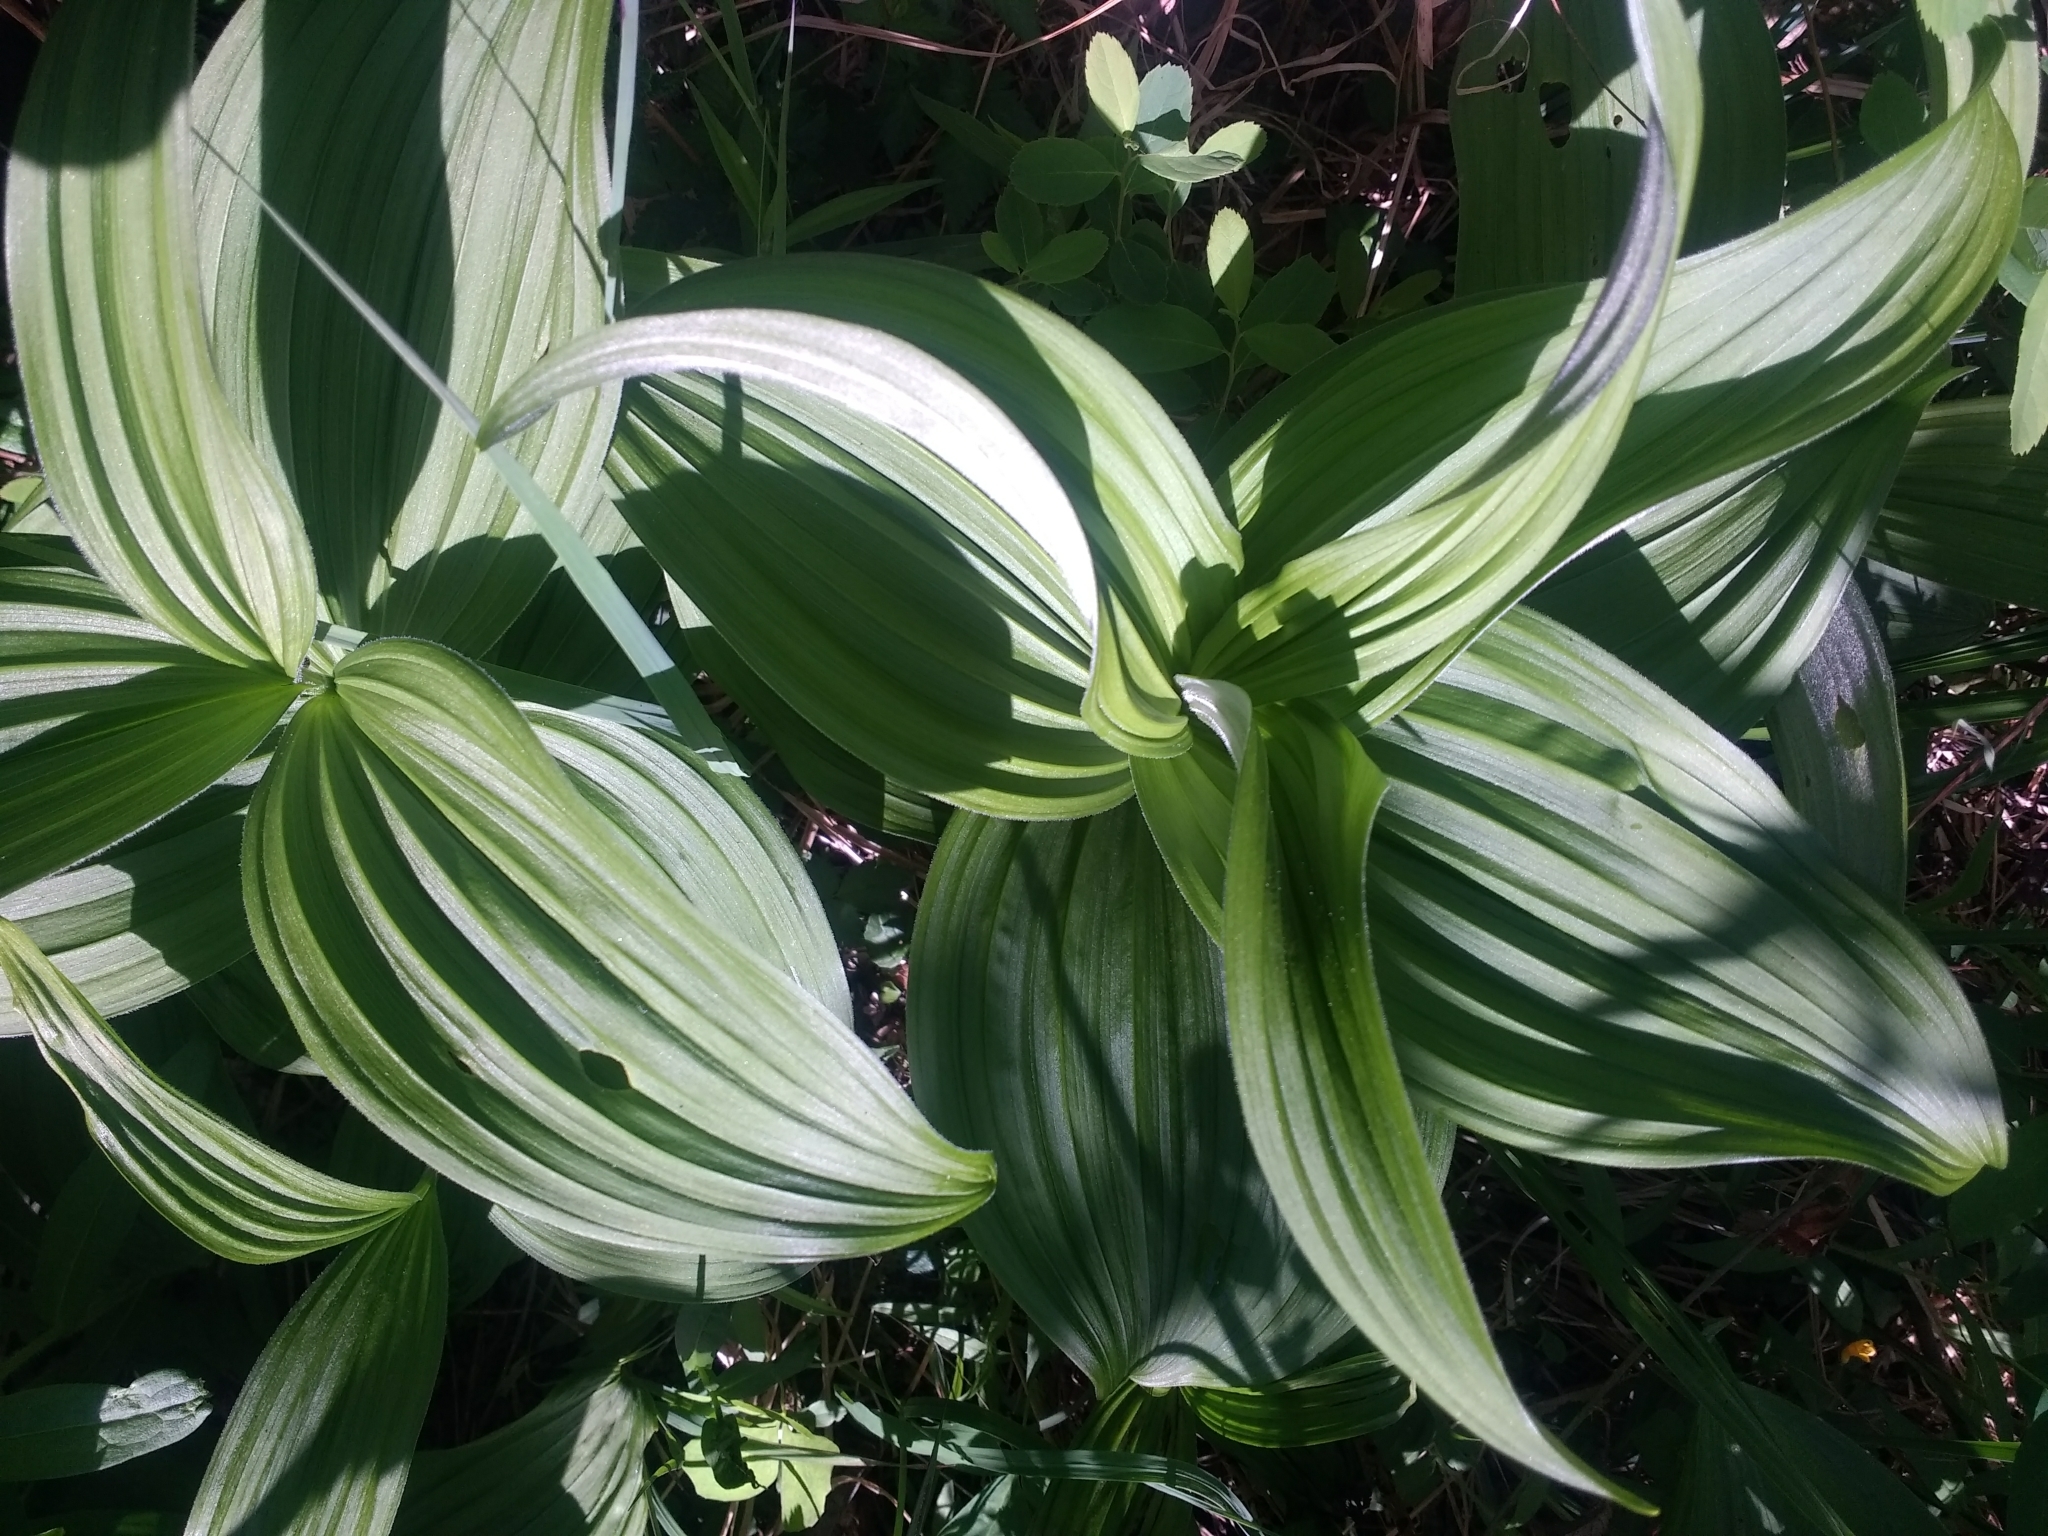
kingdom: Plantae
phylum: Tracheophyta
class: Liliopsida
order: Liliales
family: Melanthiaceae
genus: Veratrum
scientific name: Veratrum viride
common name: American false hellebore
